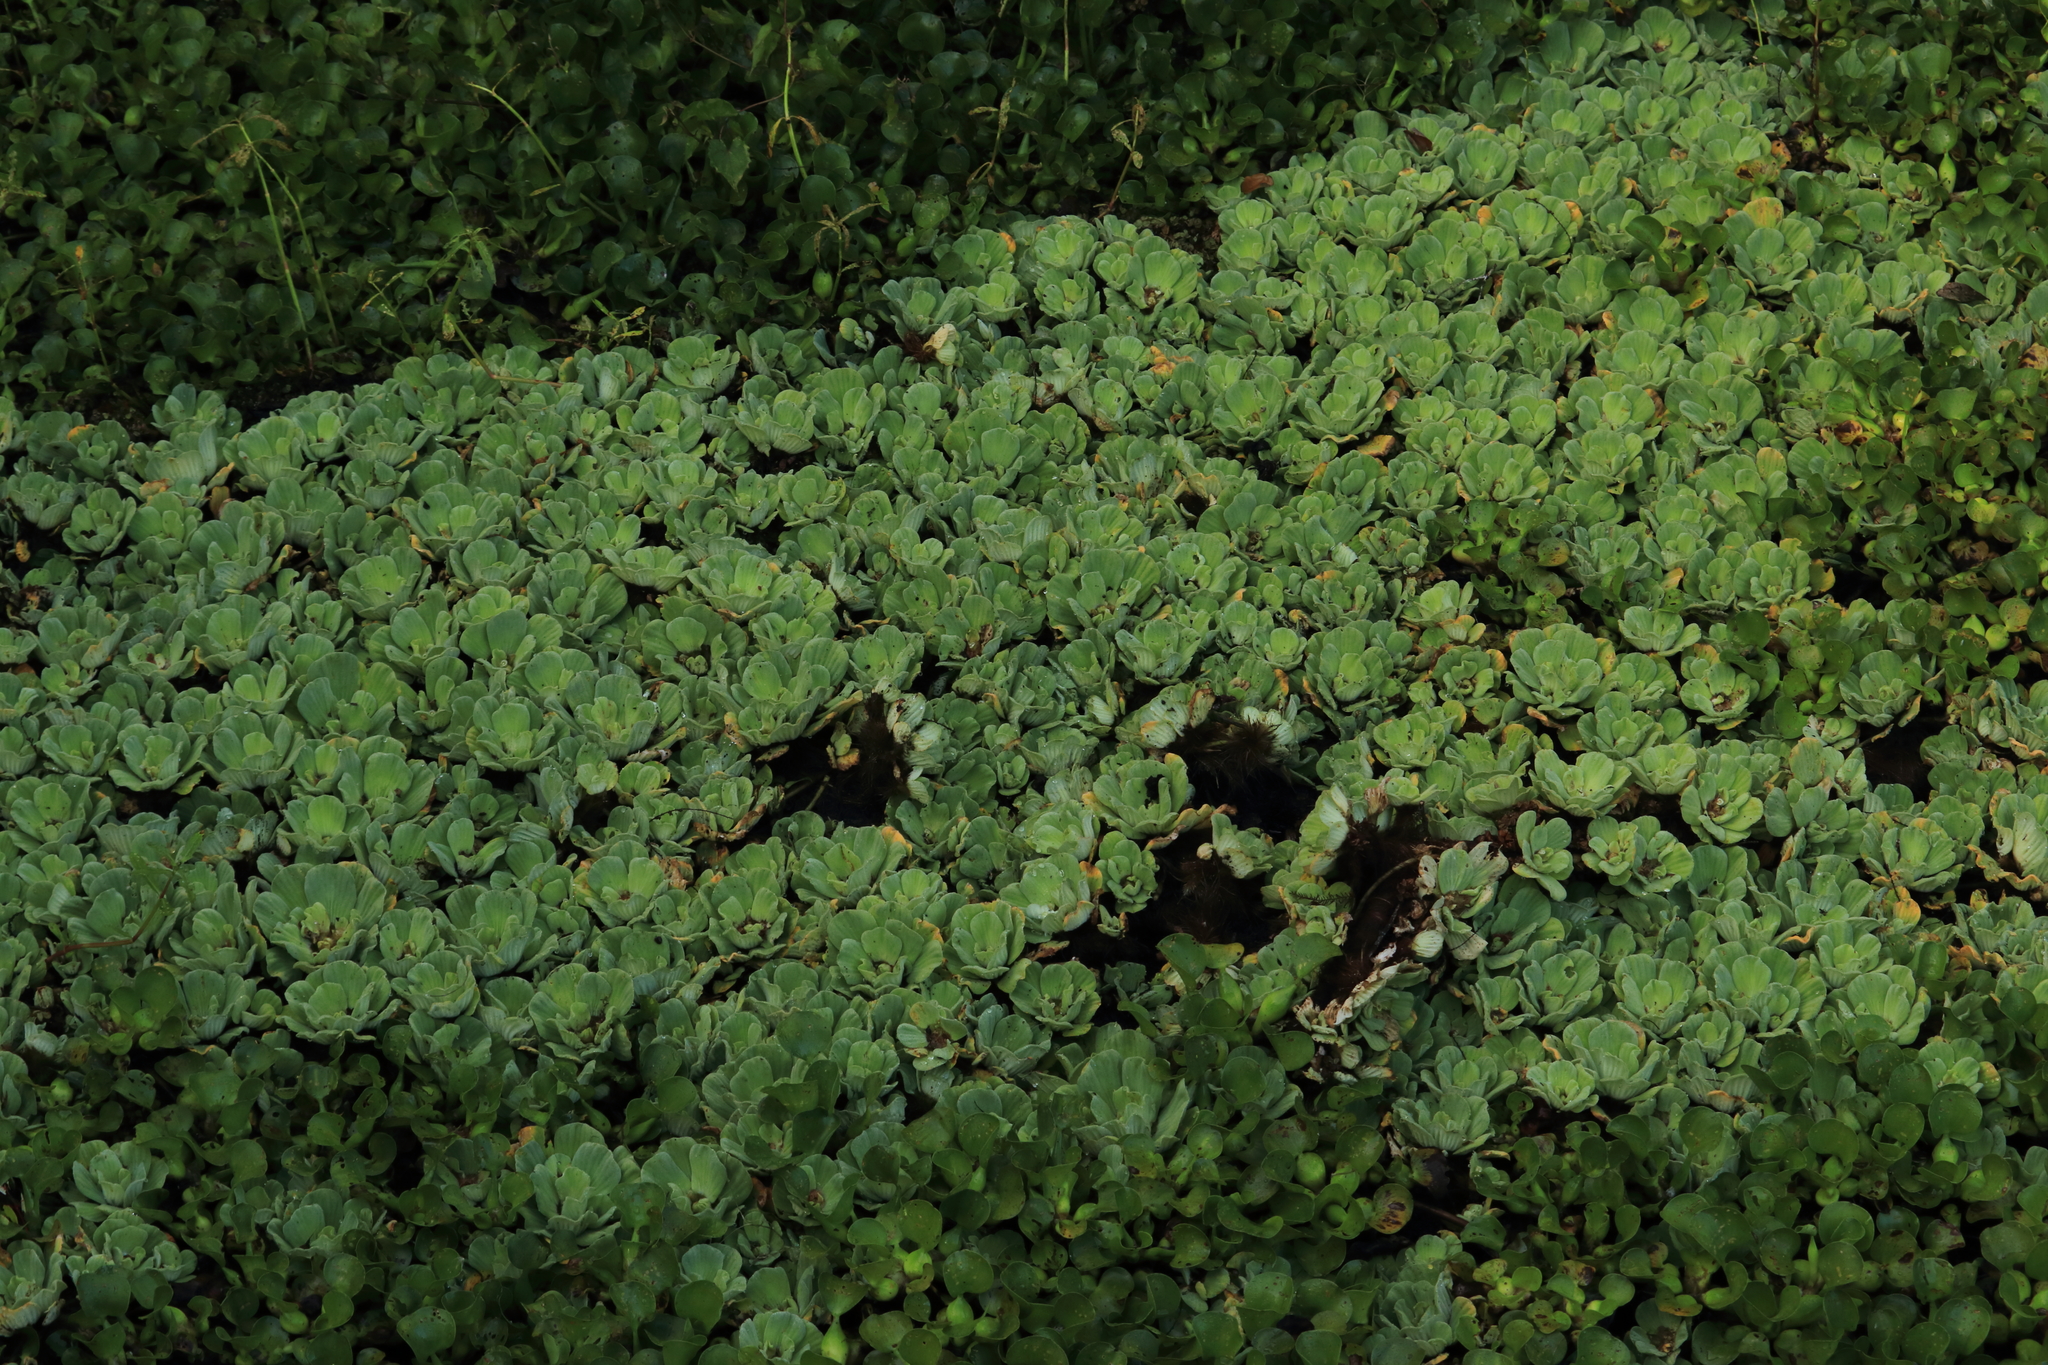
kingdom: Plantae
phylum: Tracheophyta
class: Liliopsida
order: Alismatales
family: Araceae
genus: Pistia
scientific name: Pistia stratiotes
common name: Water lettuce
